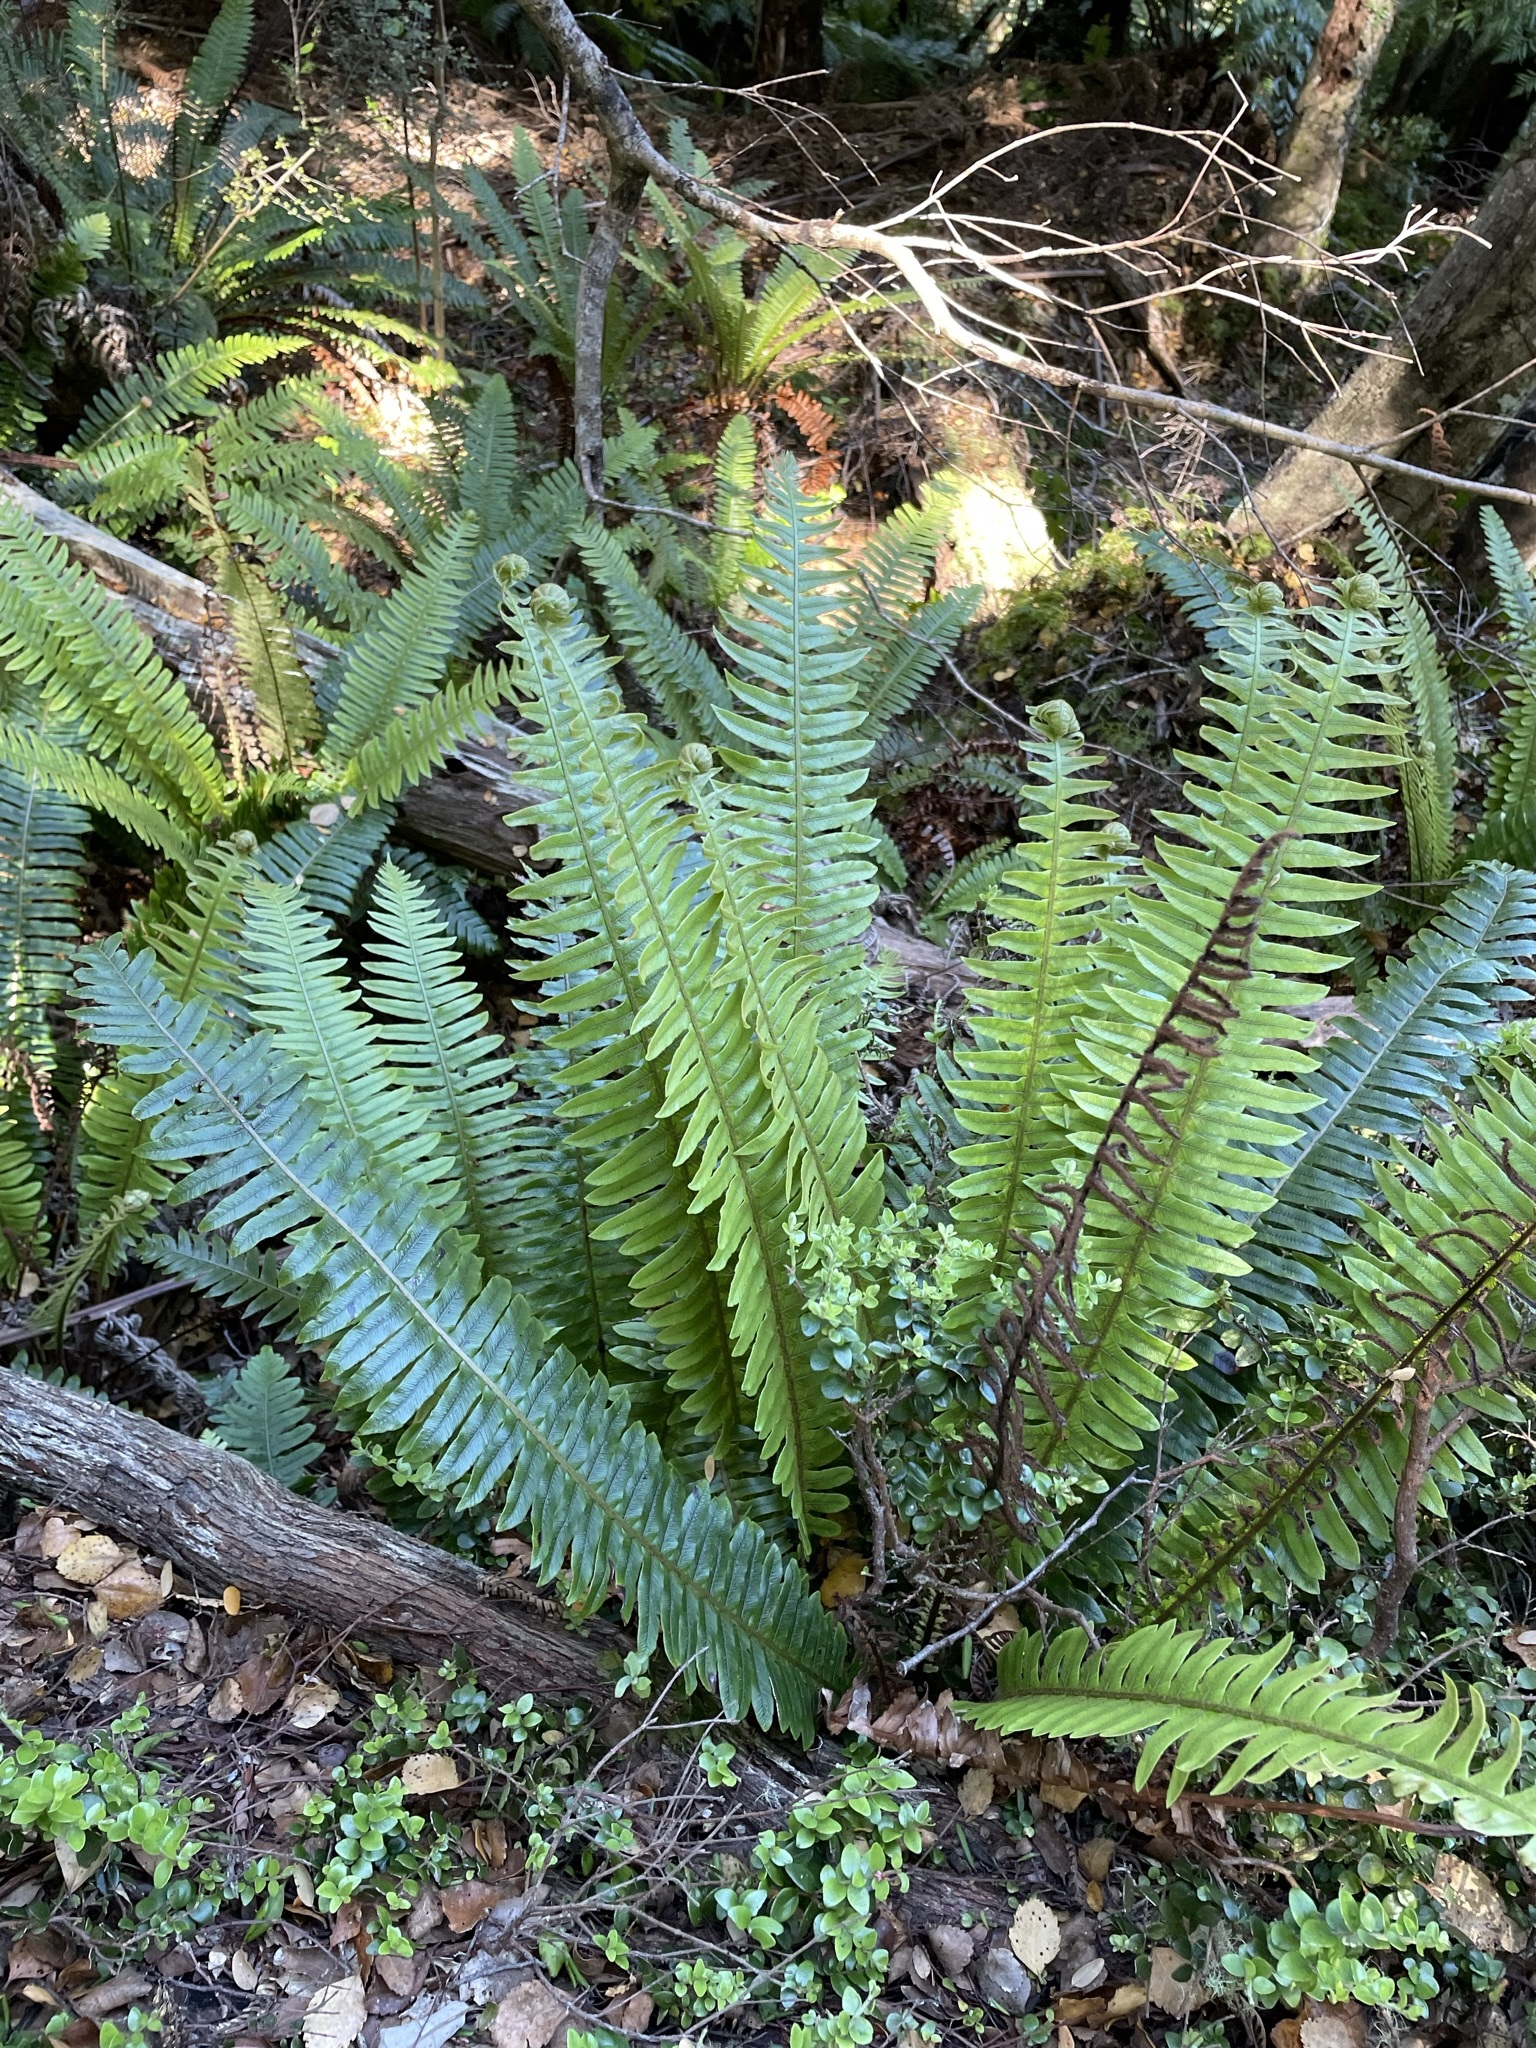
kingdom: Plantae
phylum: Tracheophyta
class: Polypodiopsida
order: Polypodiales
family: Blechnaceae
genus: Lomaria
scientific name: Lomaria discolor
